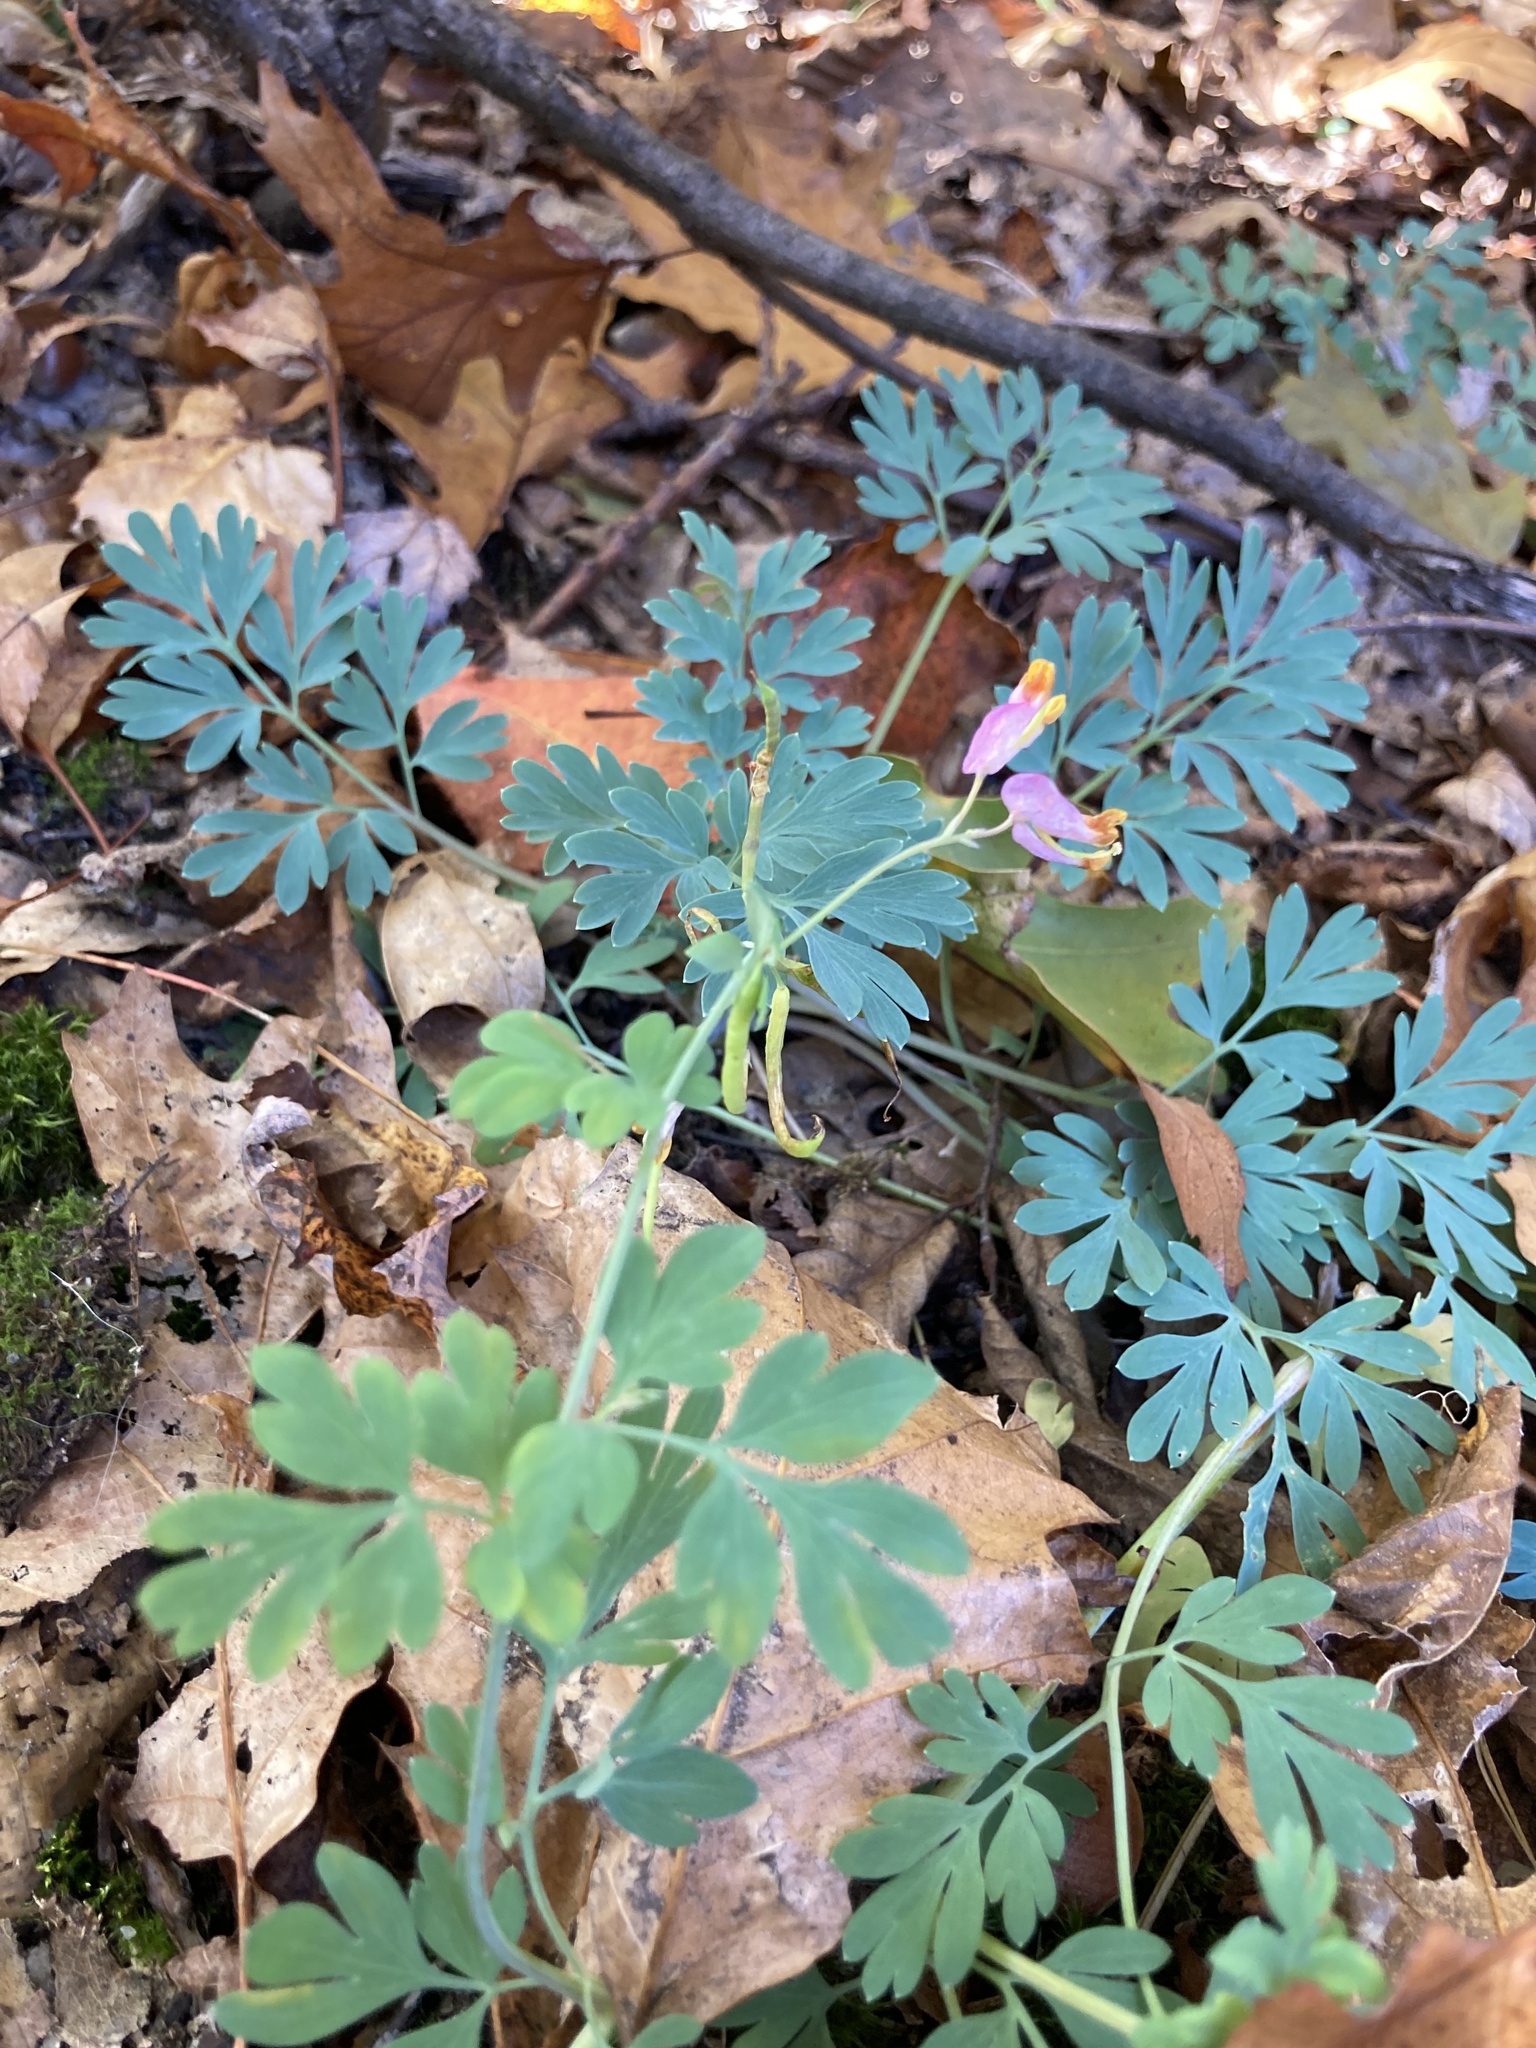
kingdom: Plantae
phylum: Tracheophyta
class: Magnoliopsida
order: Ranunculales
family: Papaveraceae
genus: Capnoides
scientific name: Capnoides sempervirens
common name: Rock harlequin
